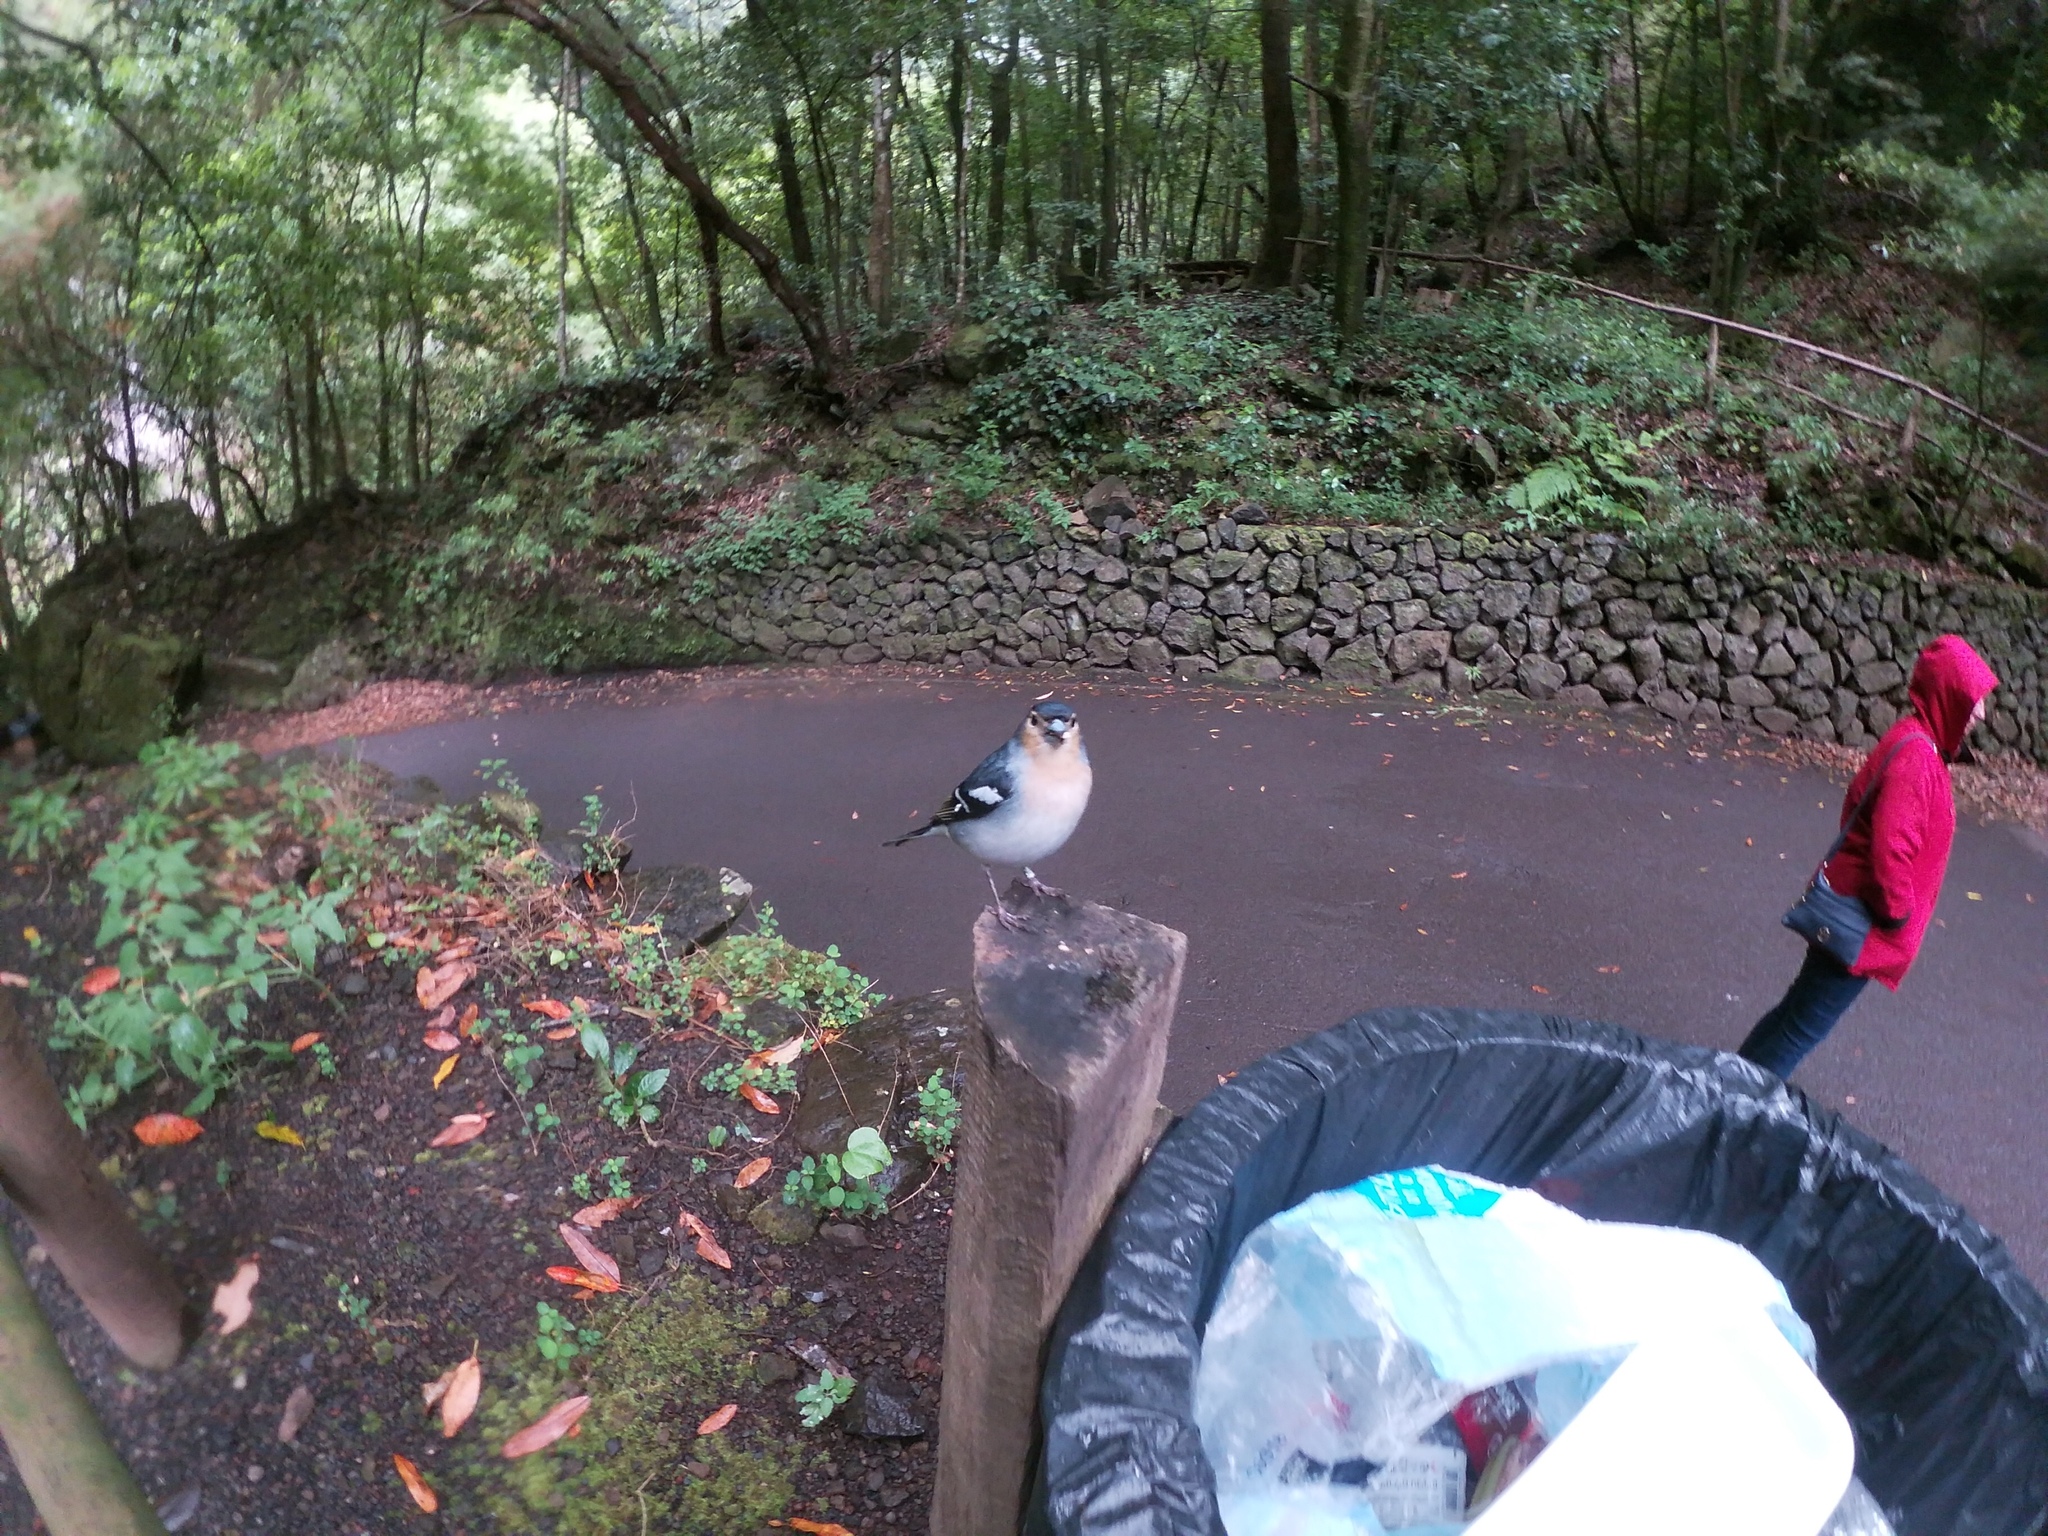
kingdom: Animalia
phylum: Chordata
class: Aves
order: Passeriformes
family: Fringillidae
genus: Fringilla
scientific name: Fringilla canariensis
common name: Canary islands chaffinch
